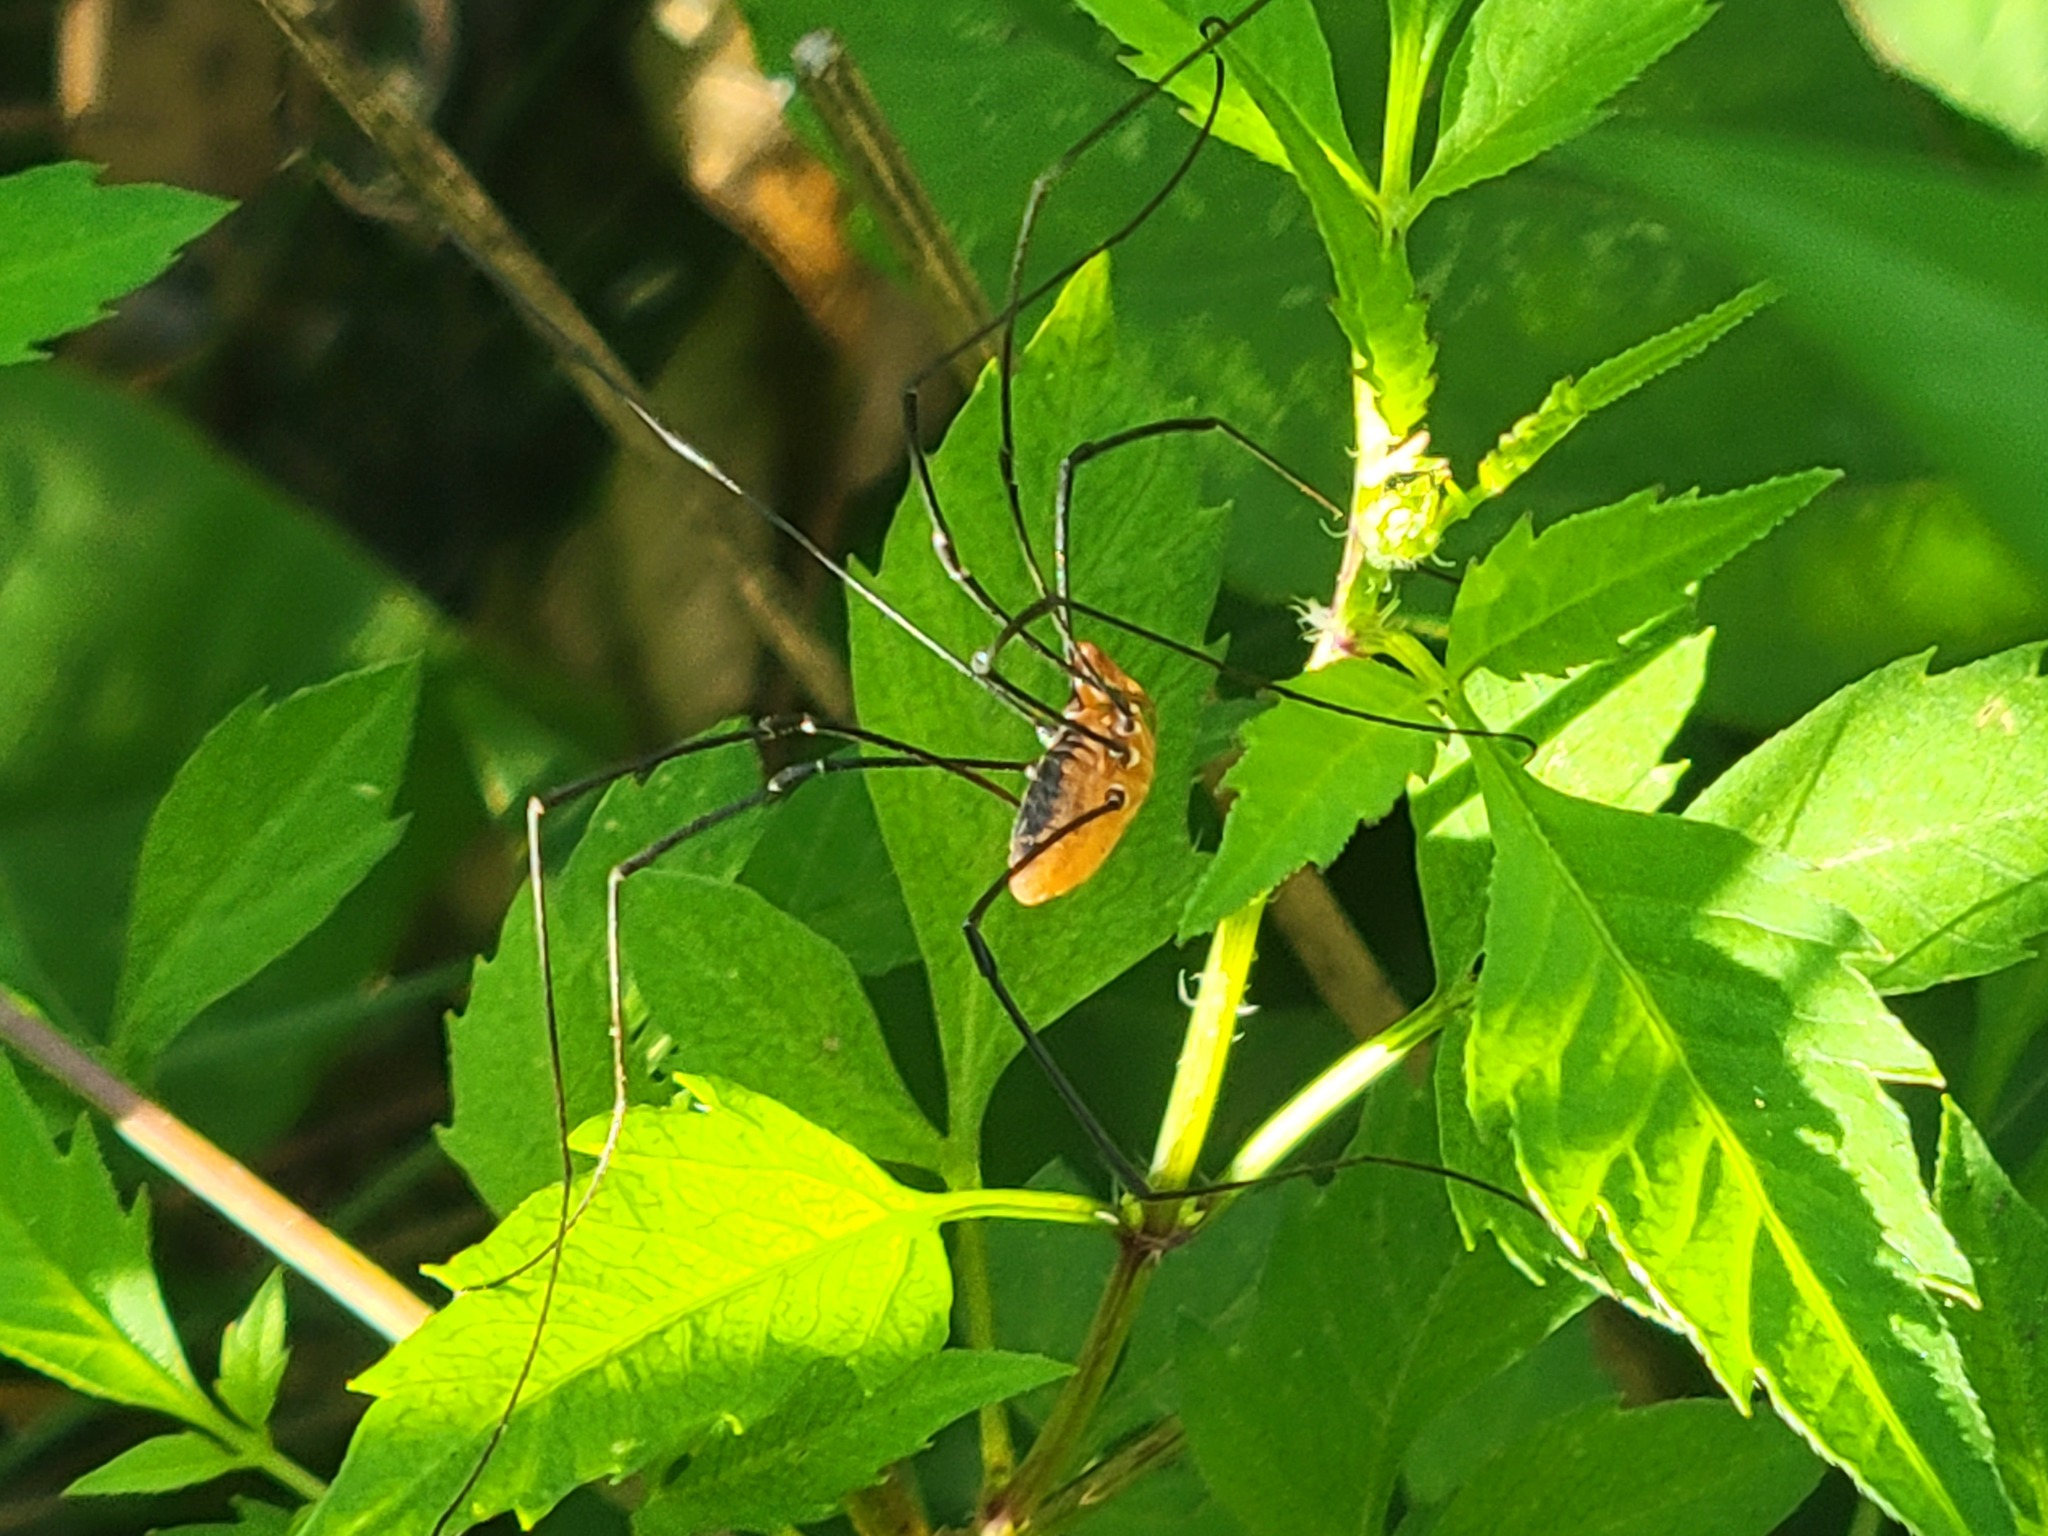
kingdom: Animalia
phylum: Arthropoda
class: Arachnida
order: Opiliones
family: Sclerosomatidae
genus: Leiobunum
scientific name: Leiobunum vittatum
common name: Eastern harvestman
